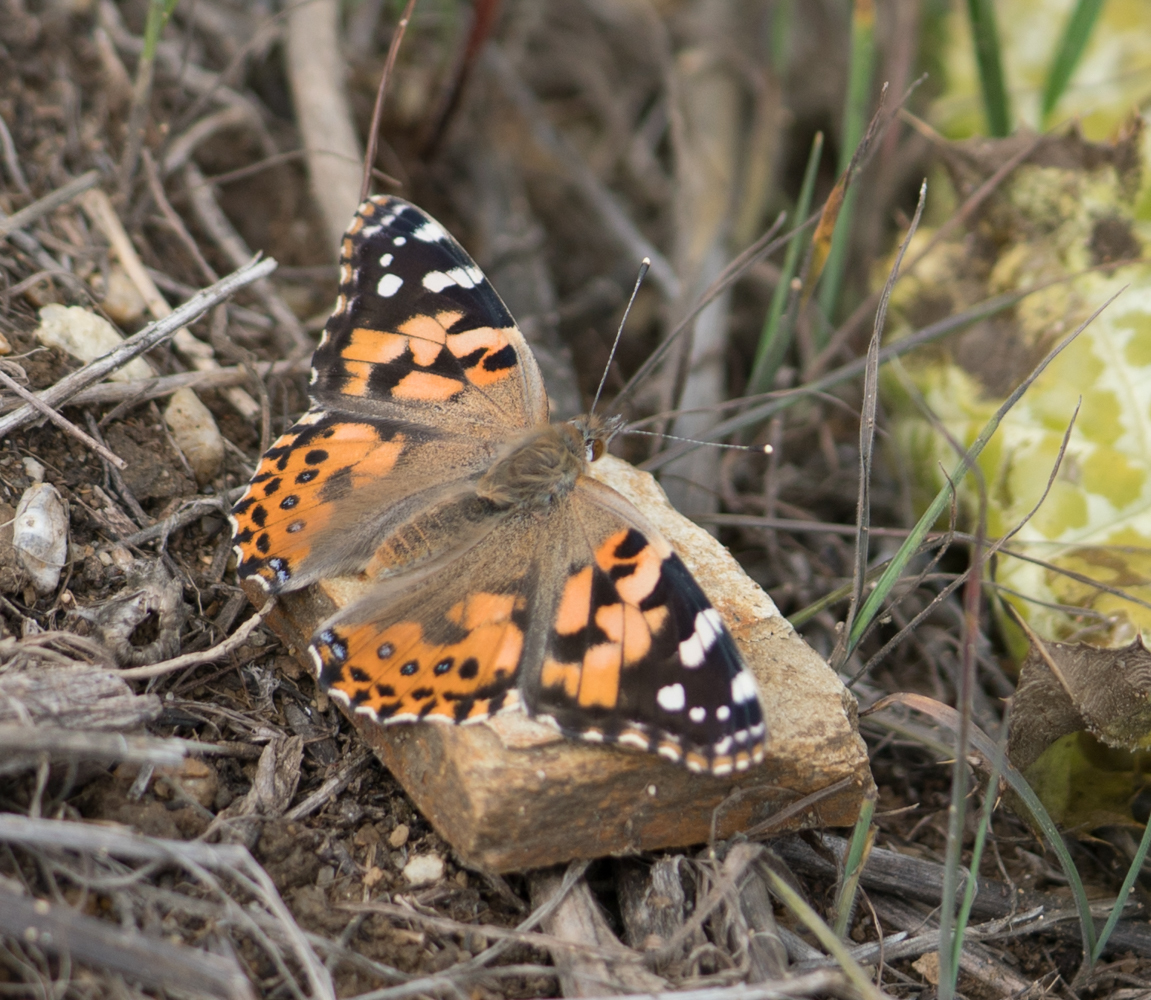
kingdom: Animalia
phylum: Arthropoda
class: Insecta
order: Lepidoptera
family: Nymphalidae
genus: Vanessa
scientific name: Vanessa cardui
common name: Painted lady
